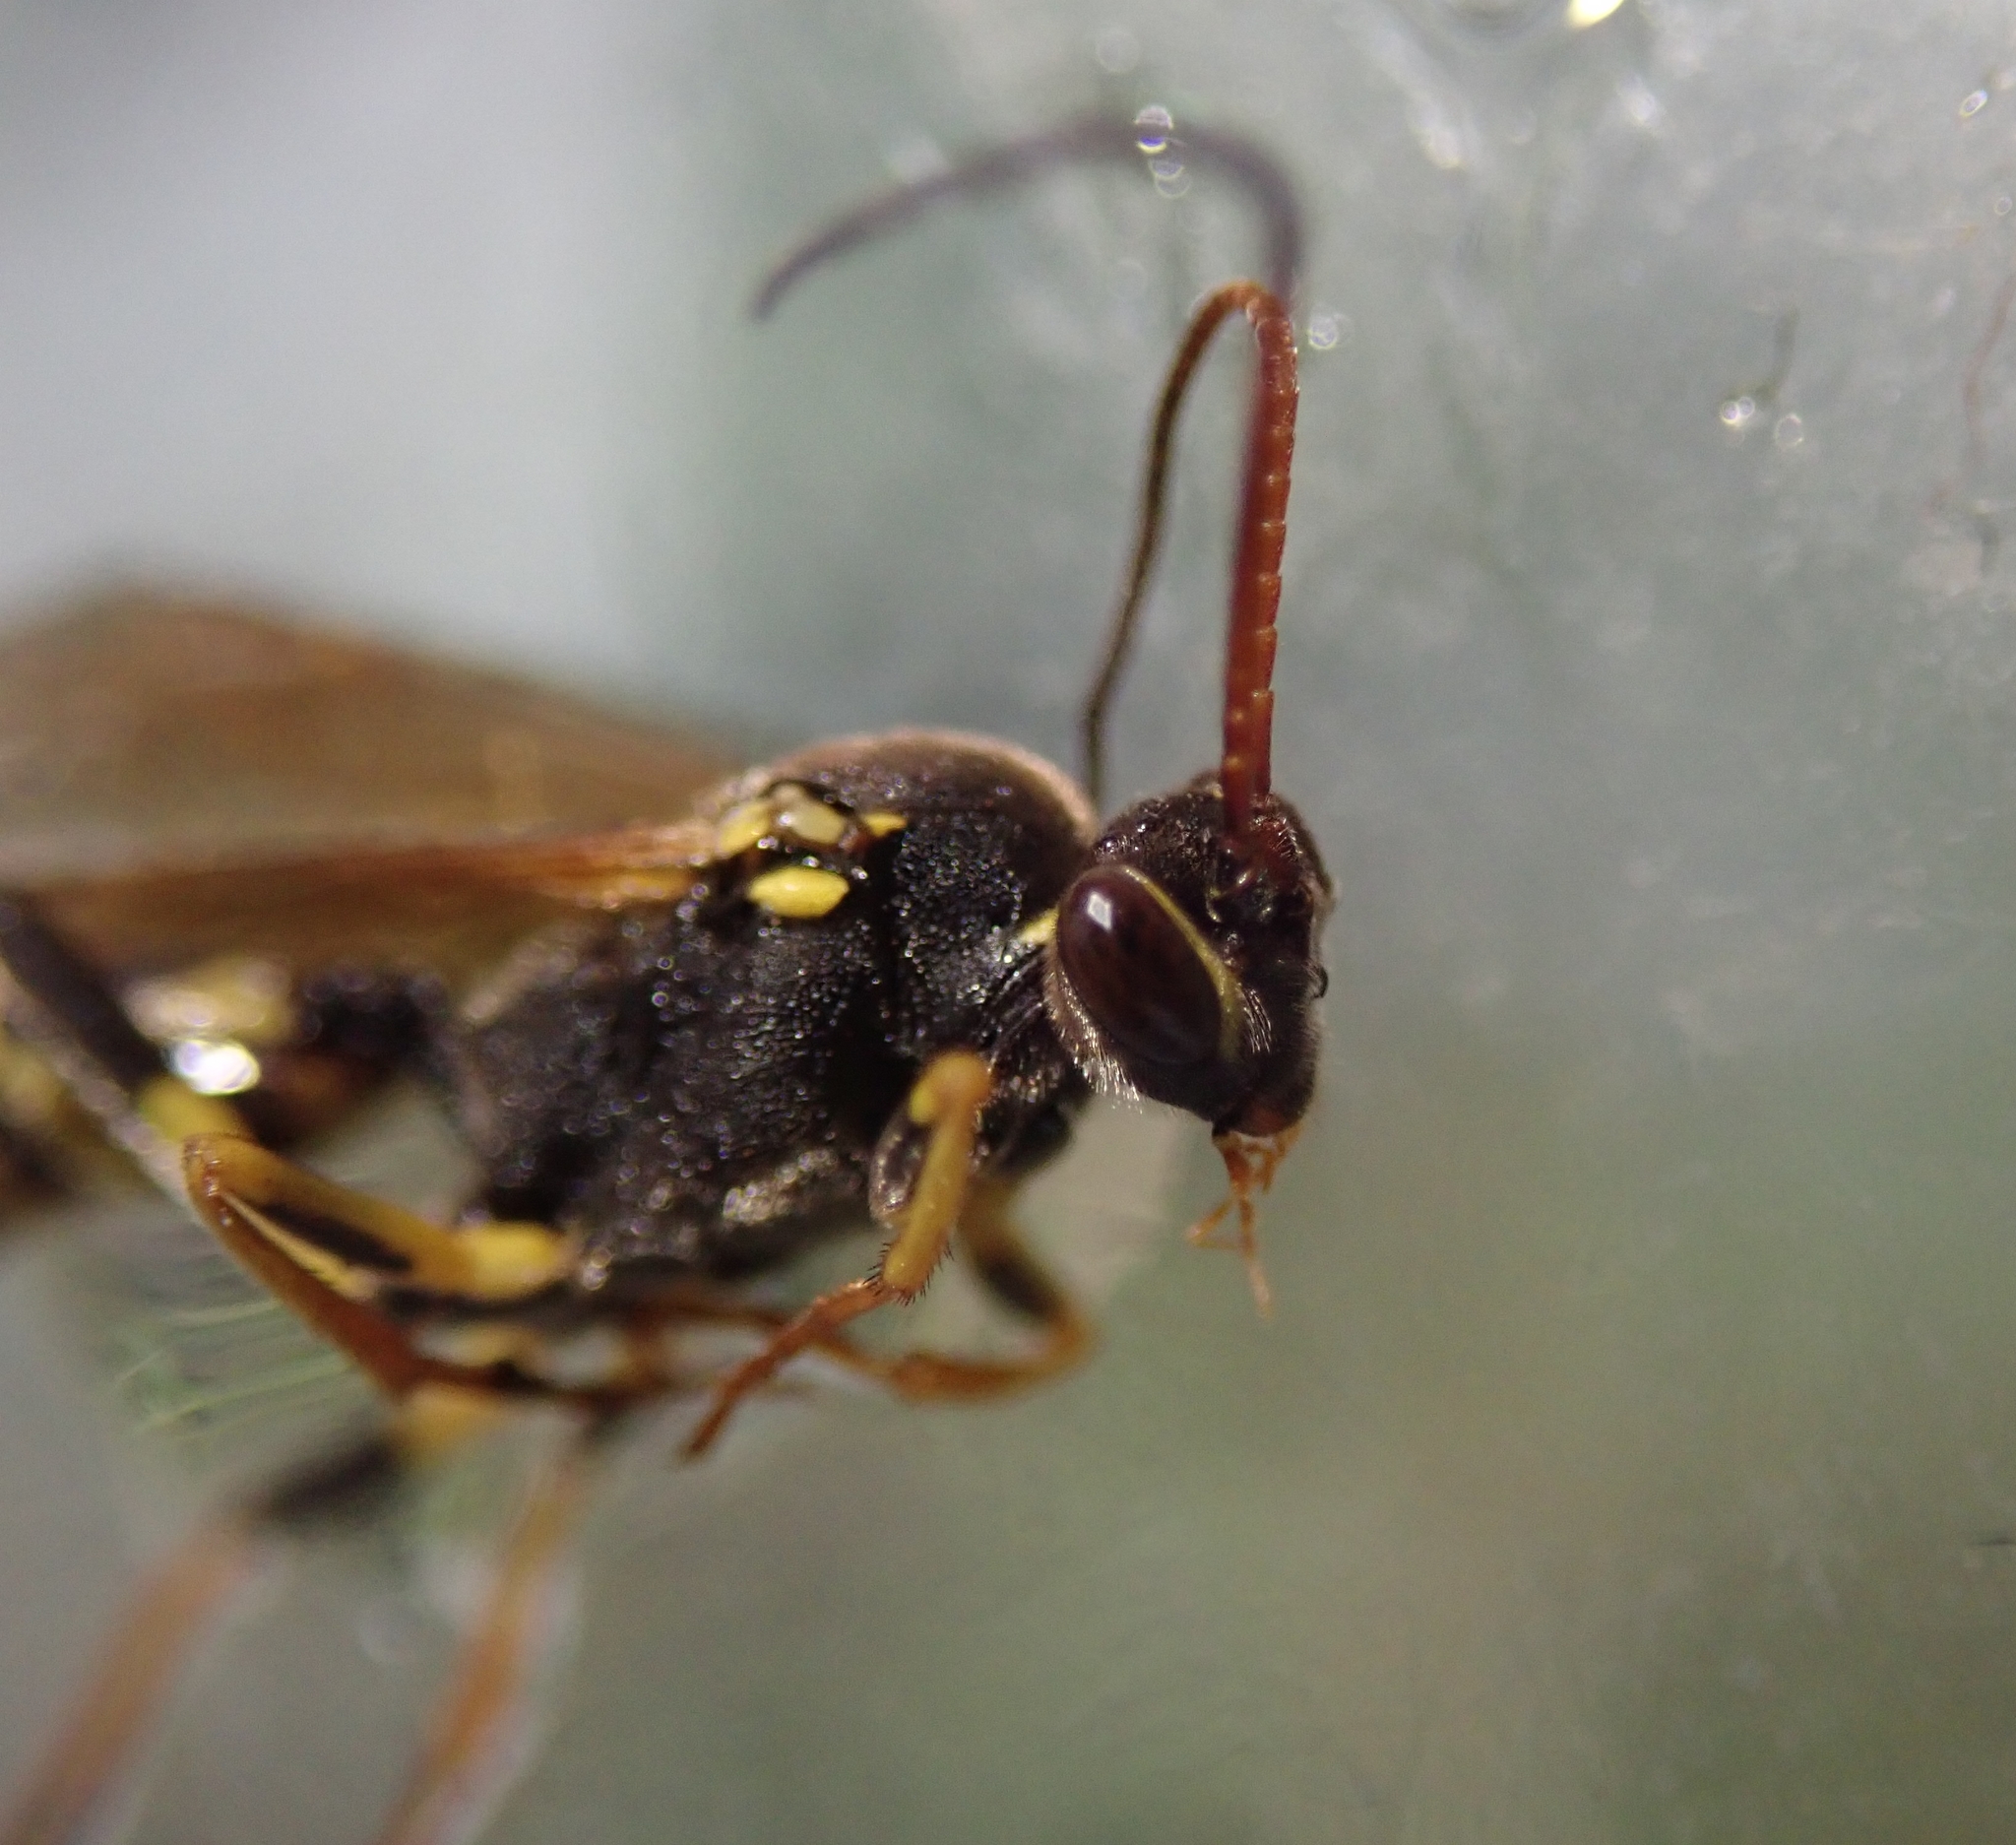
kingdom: Animalia
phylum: Arthropoda
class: Insecta
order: Hymenoptera
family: Ichneumonidae
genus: Amblyteles
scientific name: Amblyteles armatorius
